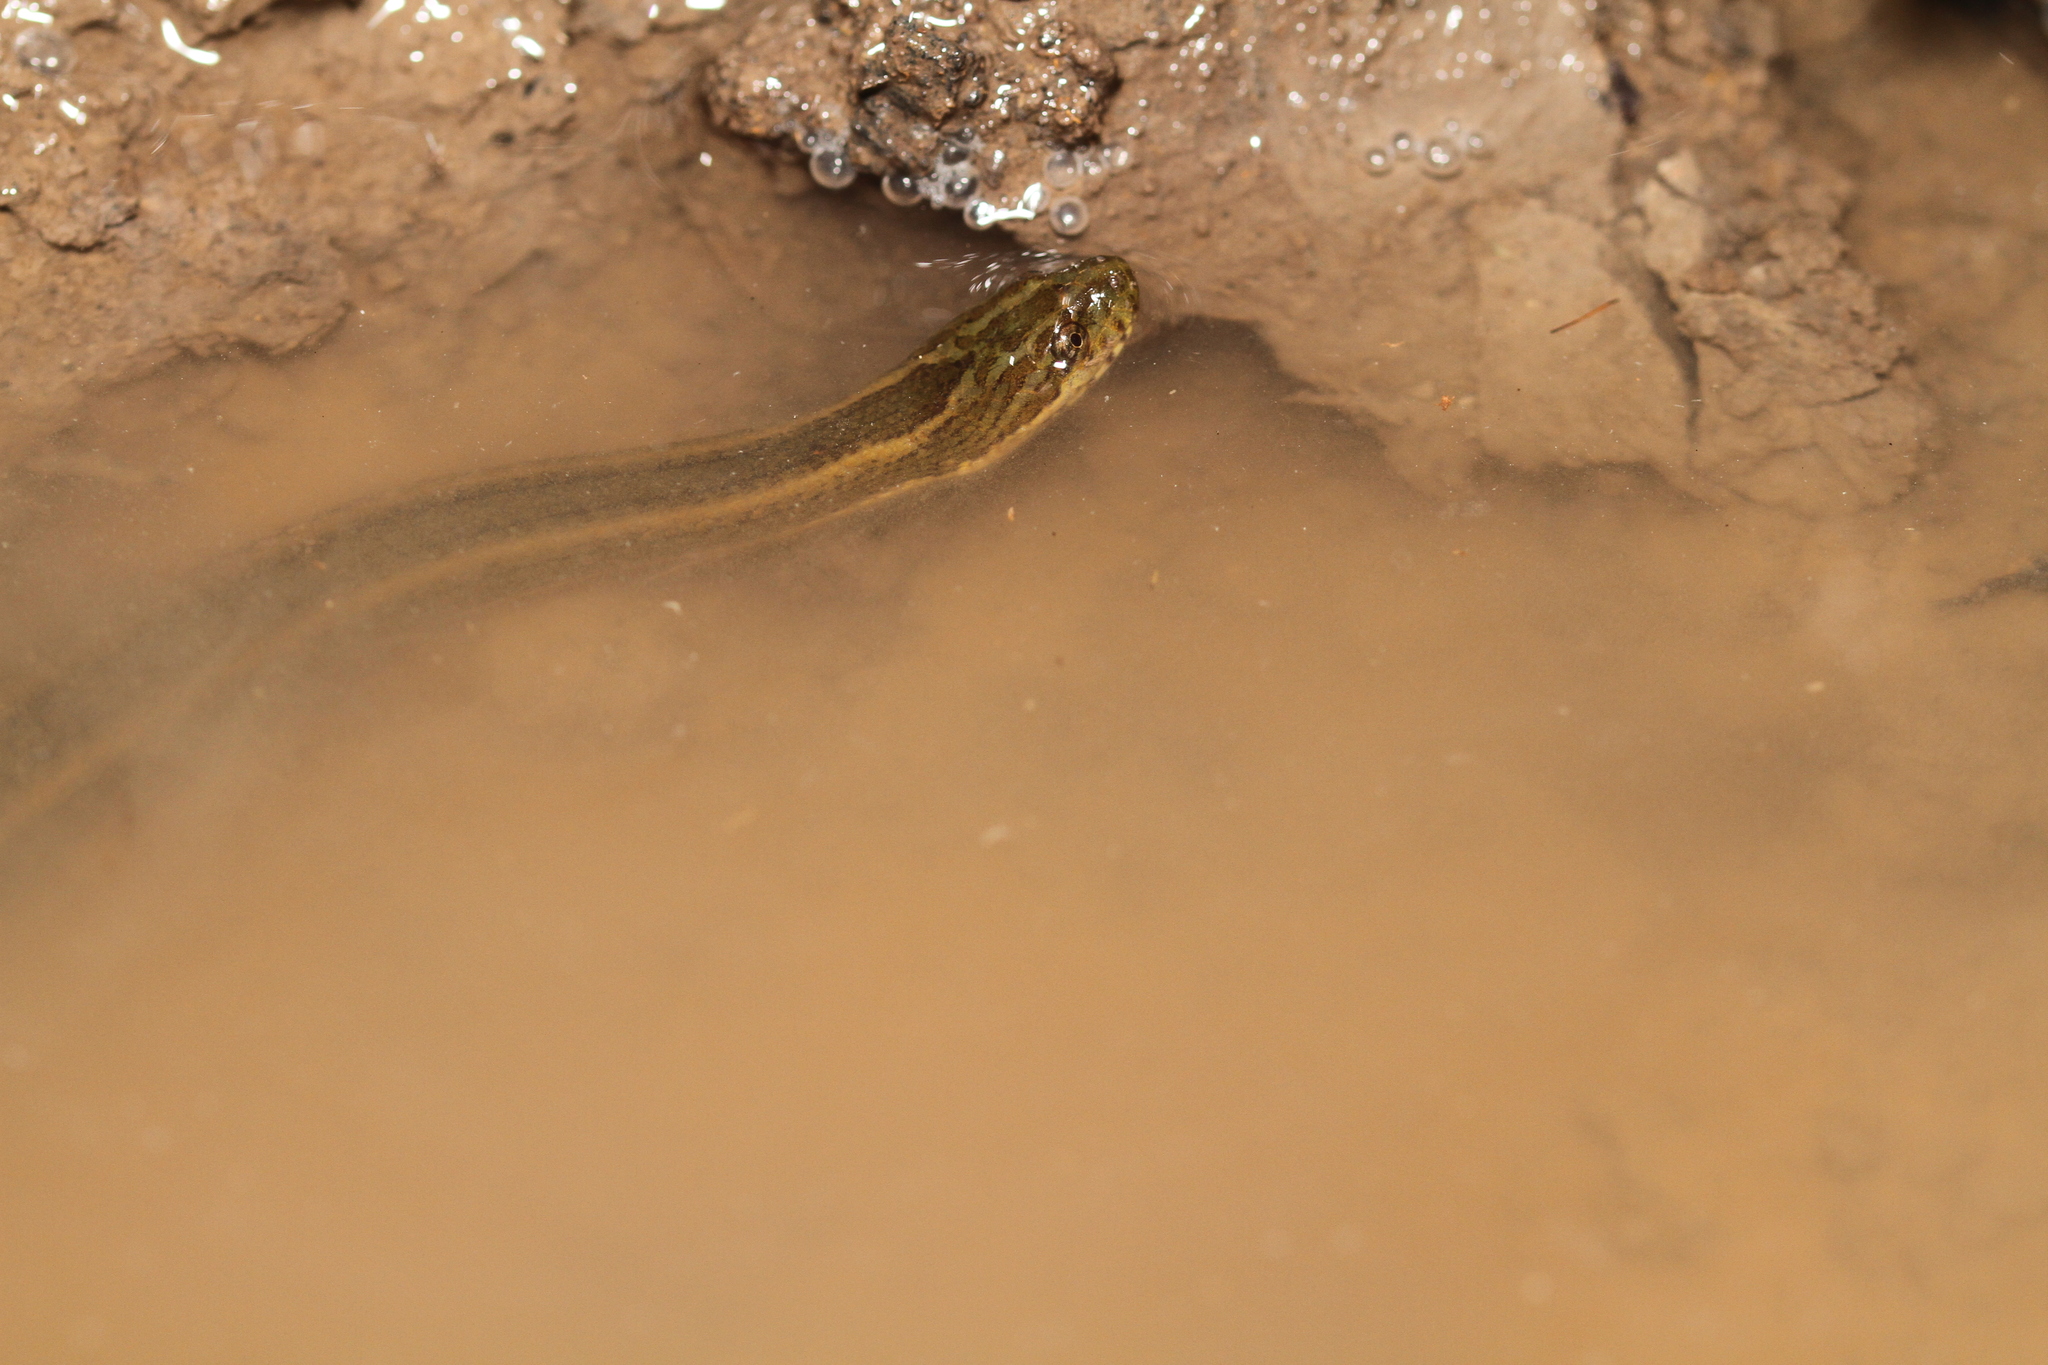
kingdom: Animalia
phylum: Chordata
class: Squamata
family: Homalopsidae
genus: Enhydris
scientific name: Enhydris enhydris
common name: Rainbow water snake
